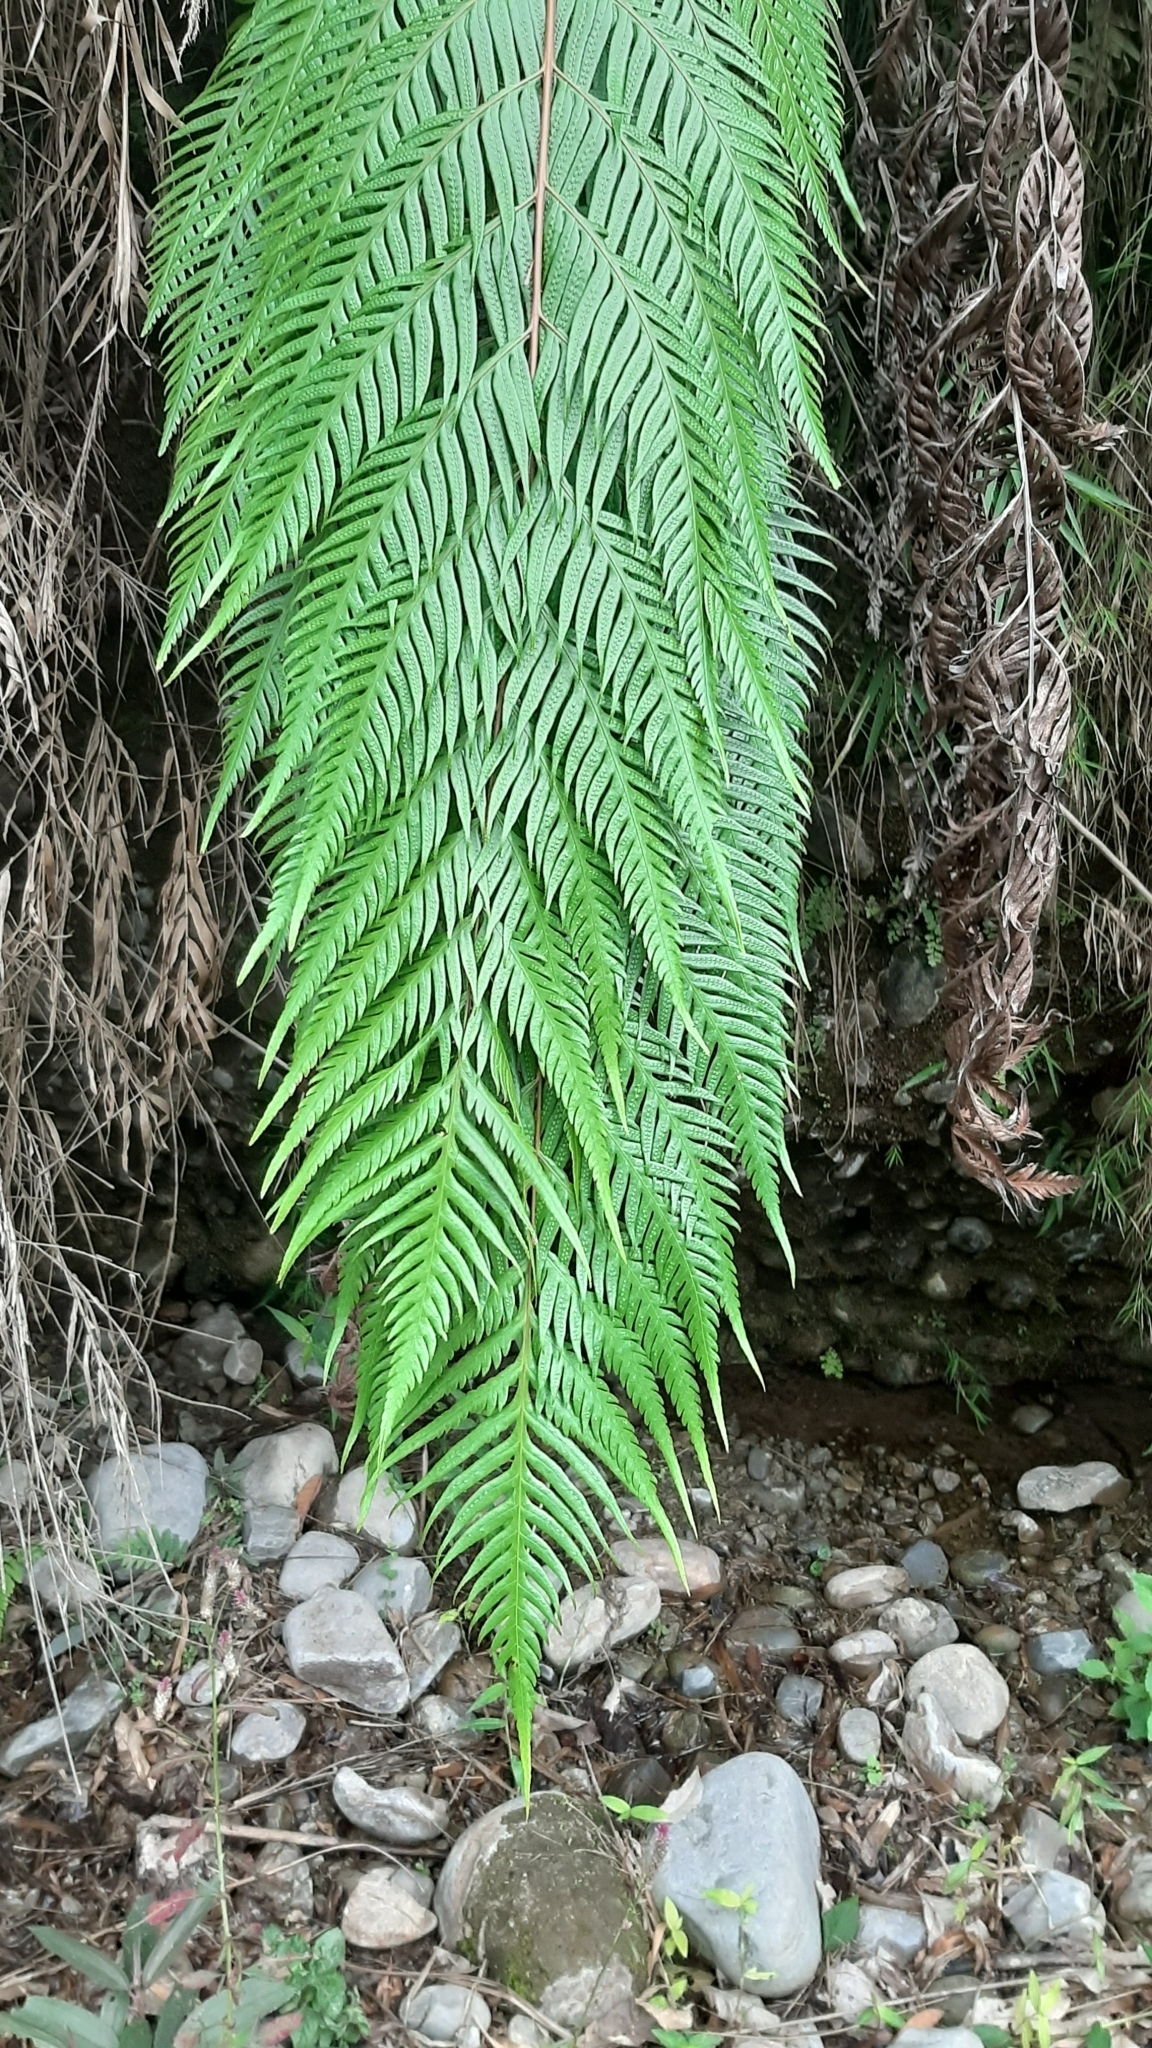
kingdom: Plantae
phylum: Tracheophyta
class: Polypodiopsida
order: Polypodiales
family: Blechnaceae
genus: Woodwardia
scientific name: Woodwardia prolifera
